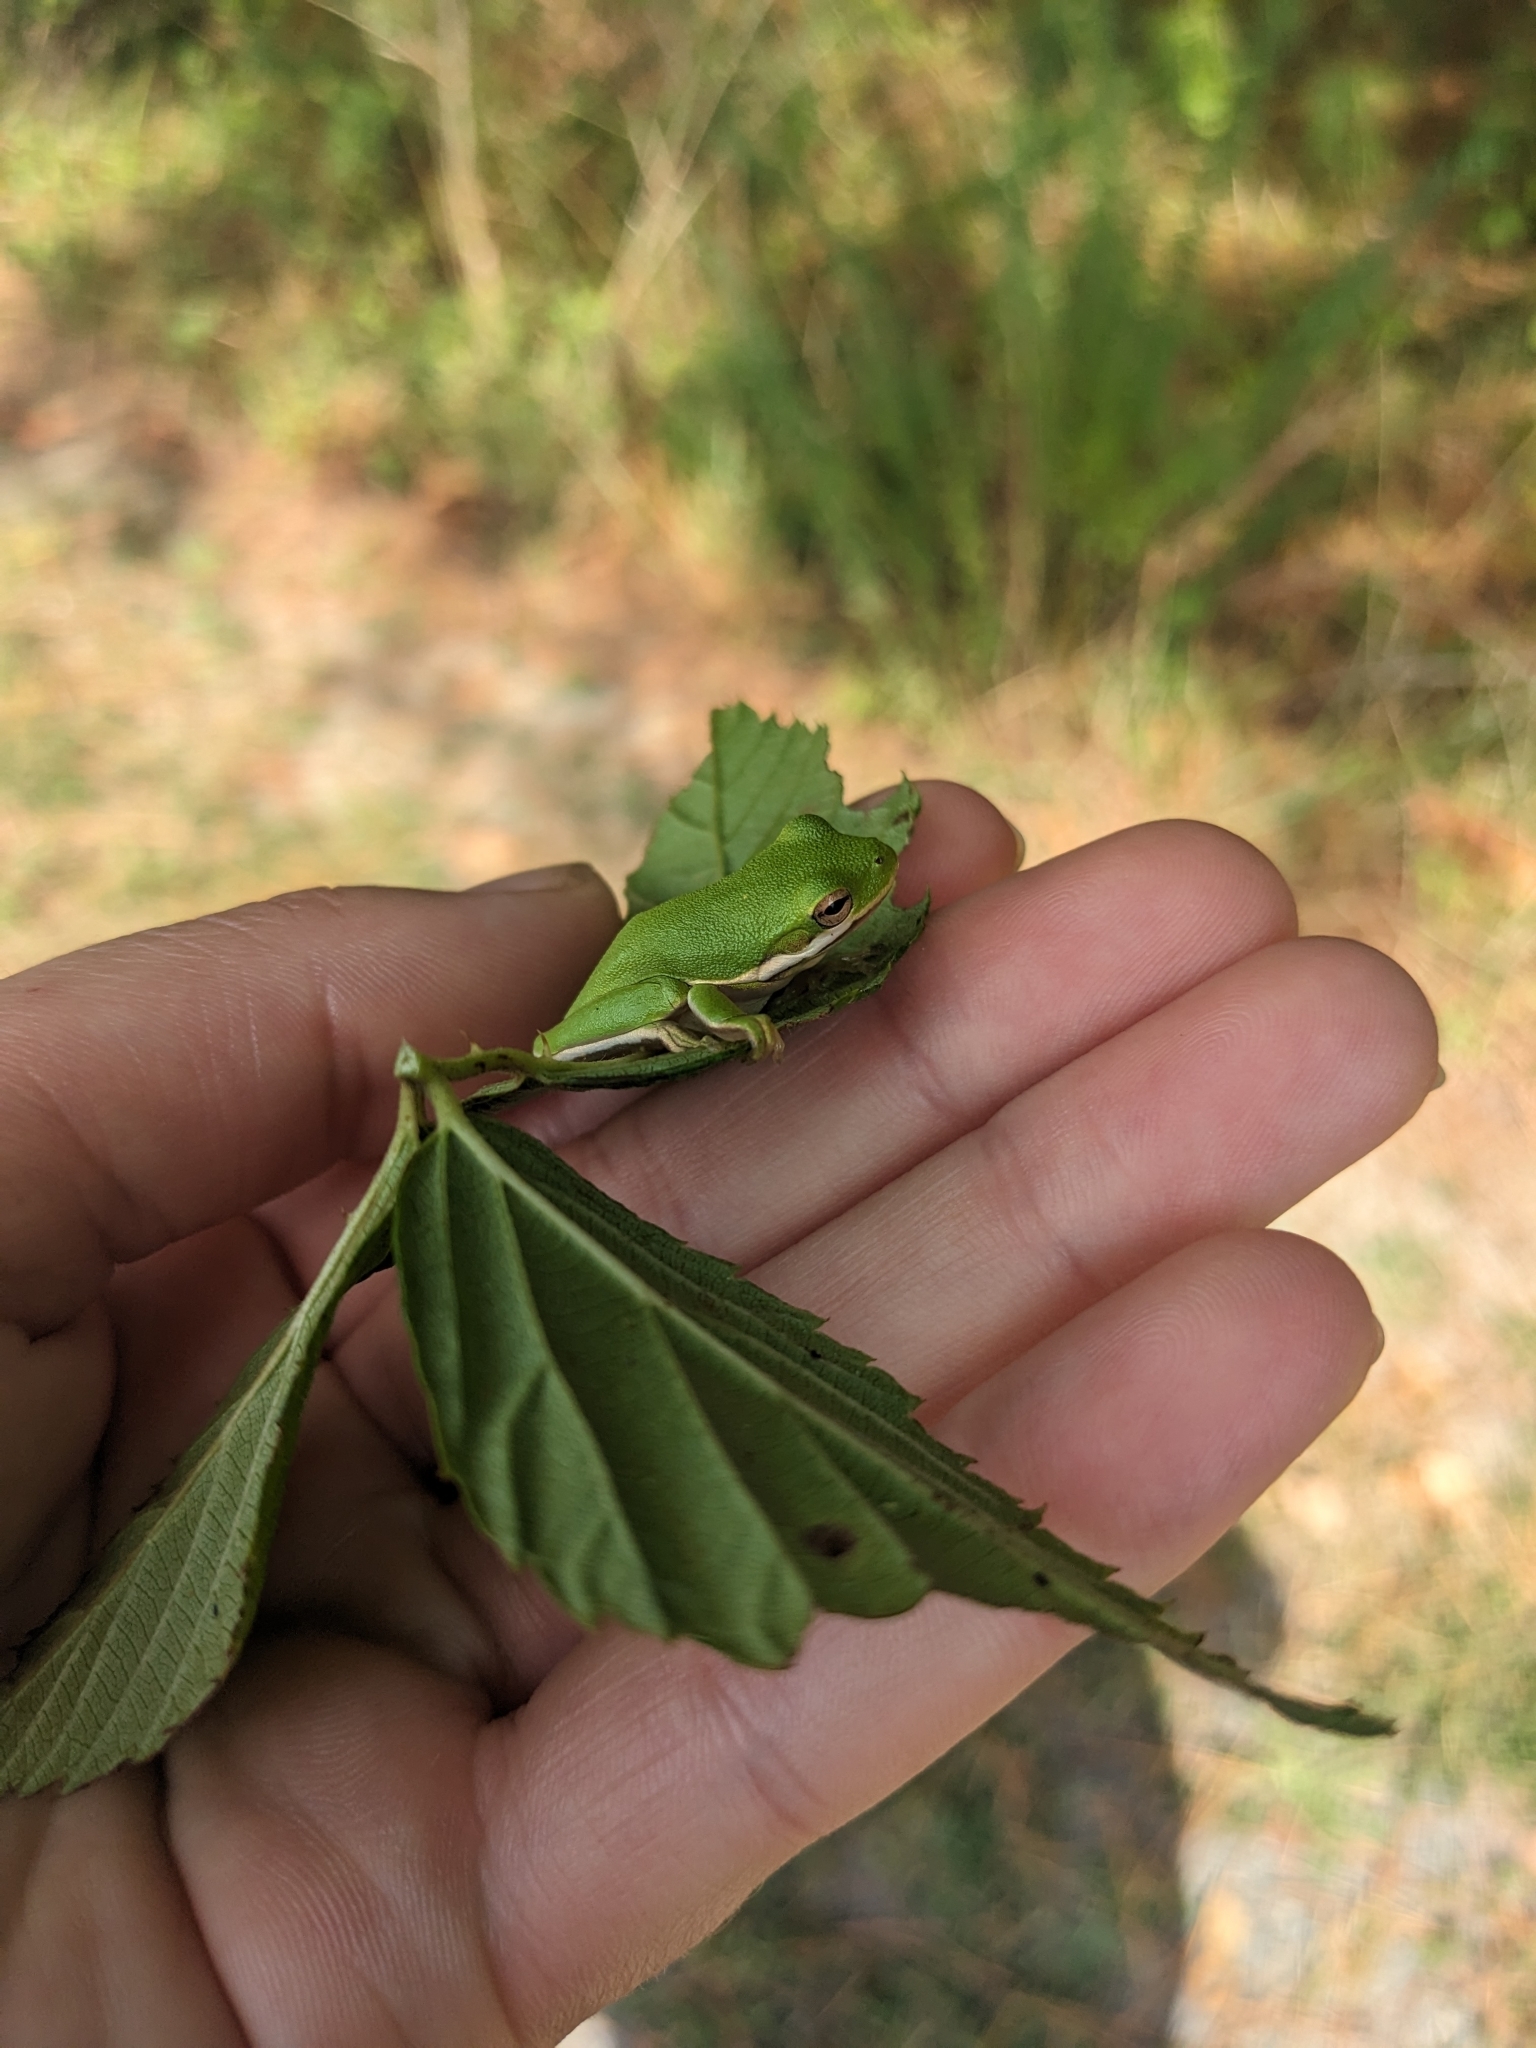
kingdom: Animalia
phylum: Chordata
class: Amphibia
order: Anura
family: Hylidae
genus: Dryophytes
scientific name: Dryophytes cinereus
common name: Green treefrog
